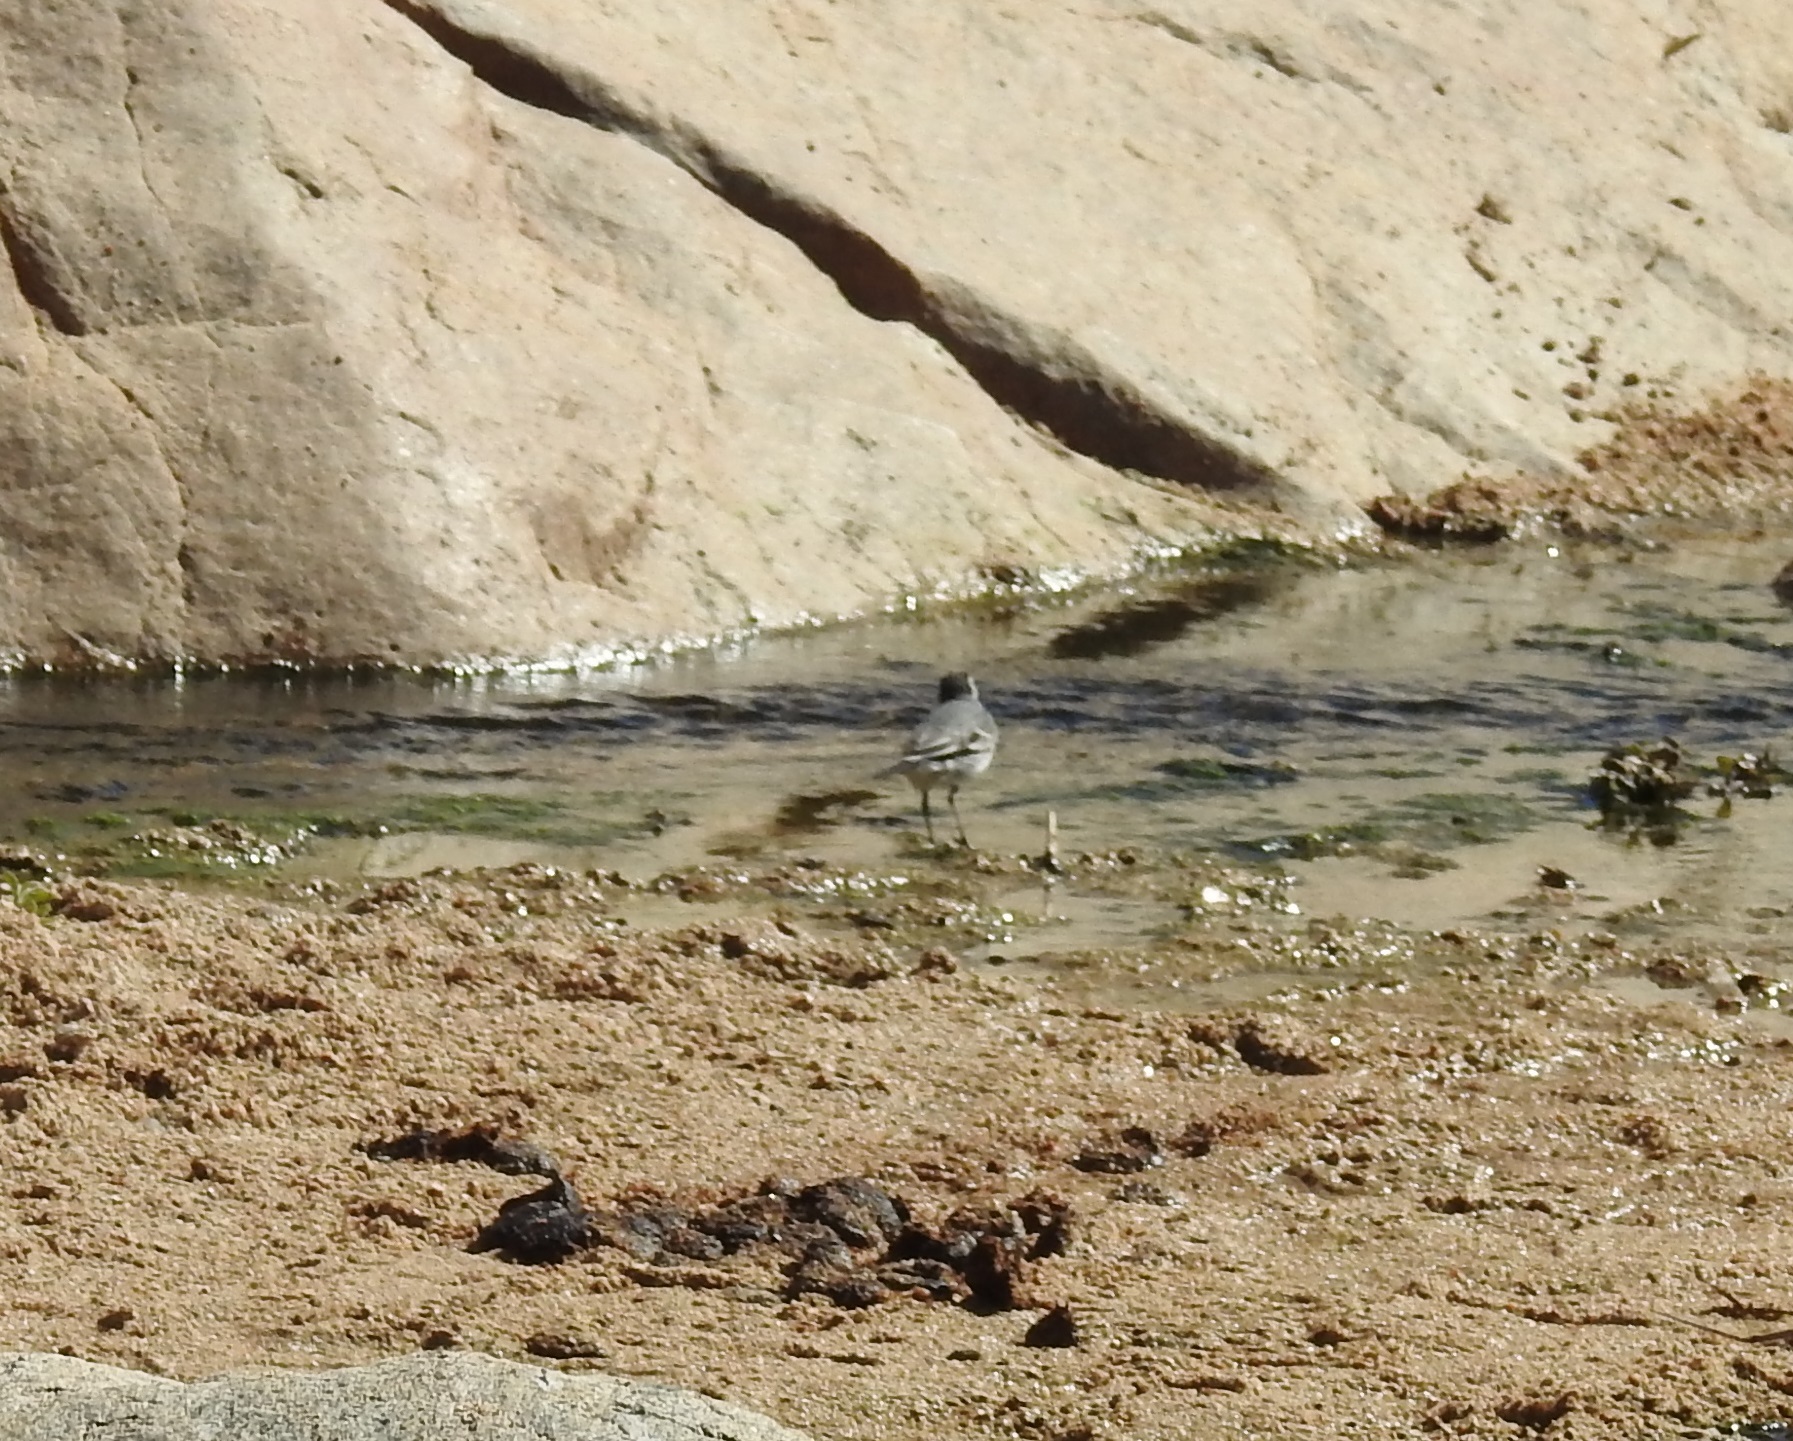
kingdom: Animalia
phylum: Chordata
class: Aves
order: Passeriformes
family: Motacillidae
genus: Motacilla
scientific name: Motacilla alba
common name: White wagtail
